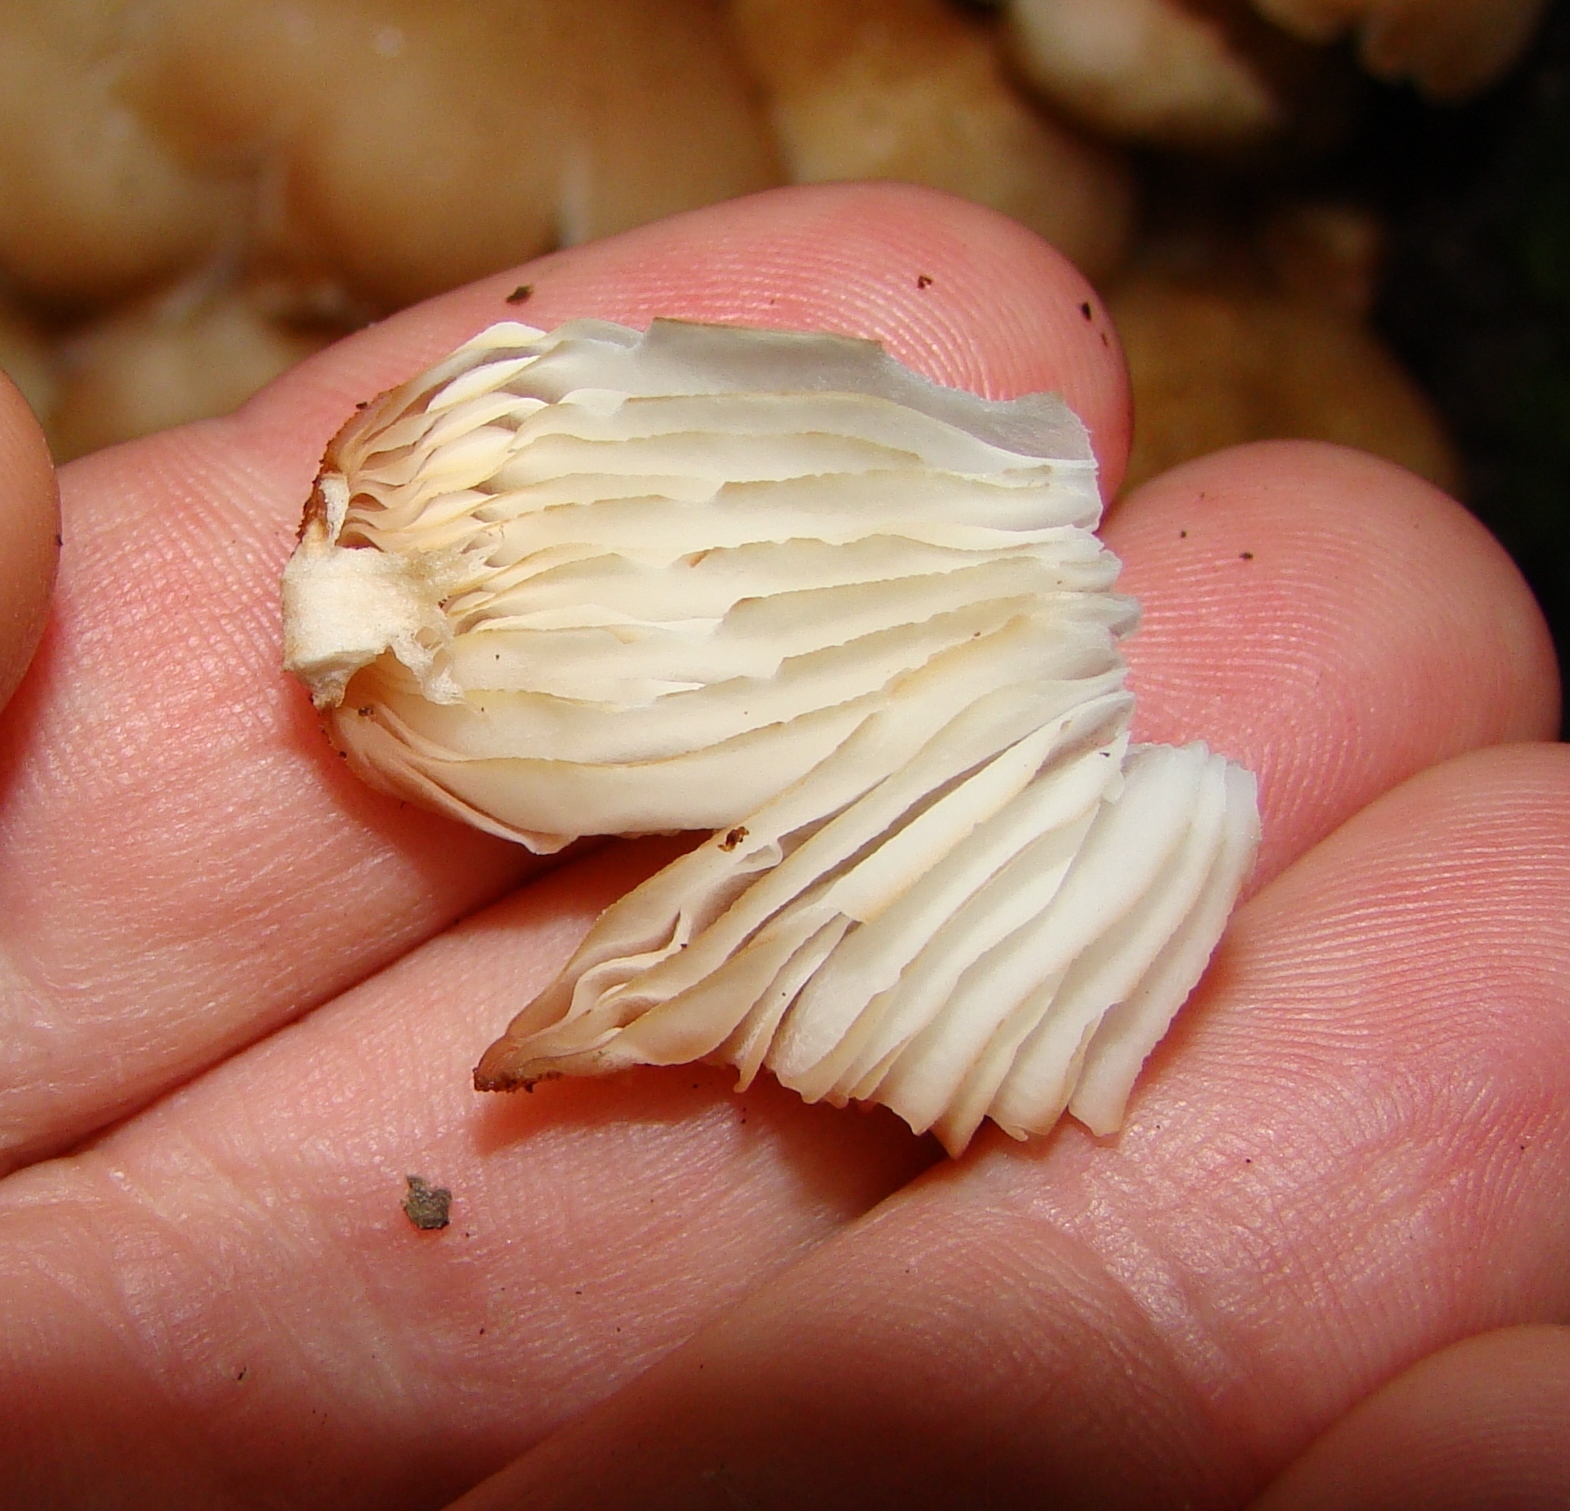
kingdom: Fungi
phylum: Basidiomycota
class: Agaricomycetes
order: Agaricales
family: Physalacriaceae
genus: Armillaria
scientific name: Armillaria limonea
